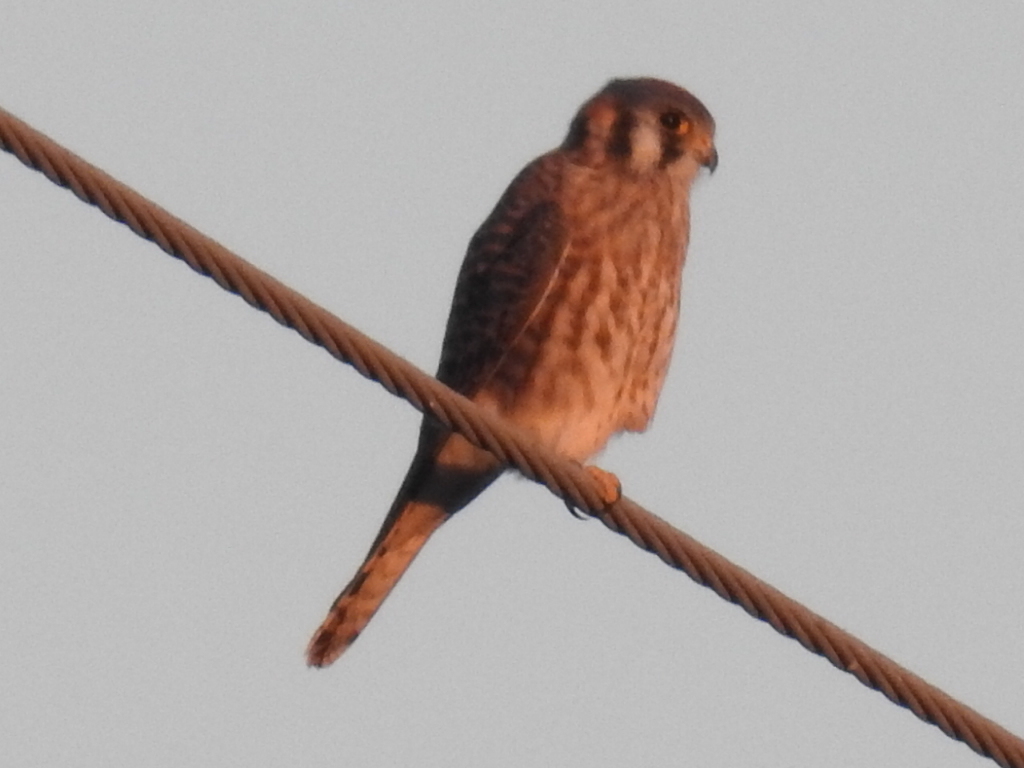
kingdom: Animalia
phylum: Chordata
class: Aves
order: Falconiformes
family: Falconidae
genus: Falco
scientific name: Falco sparverius
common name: American kestrel
